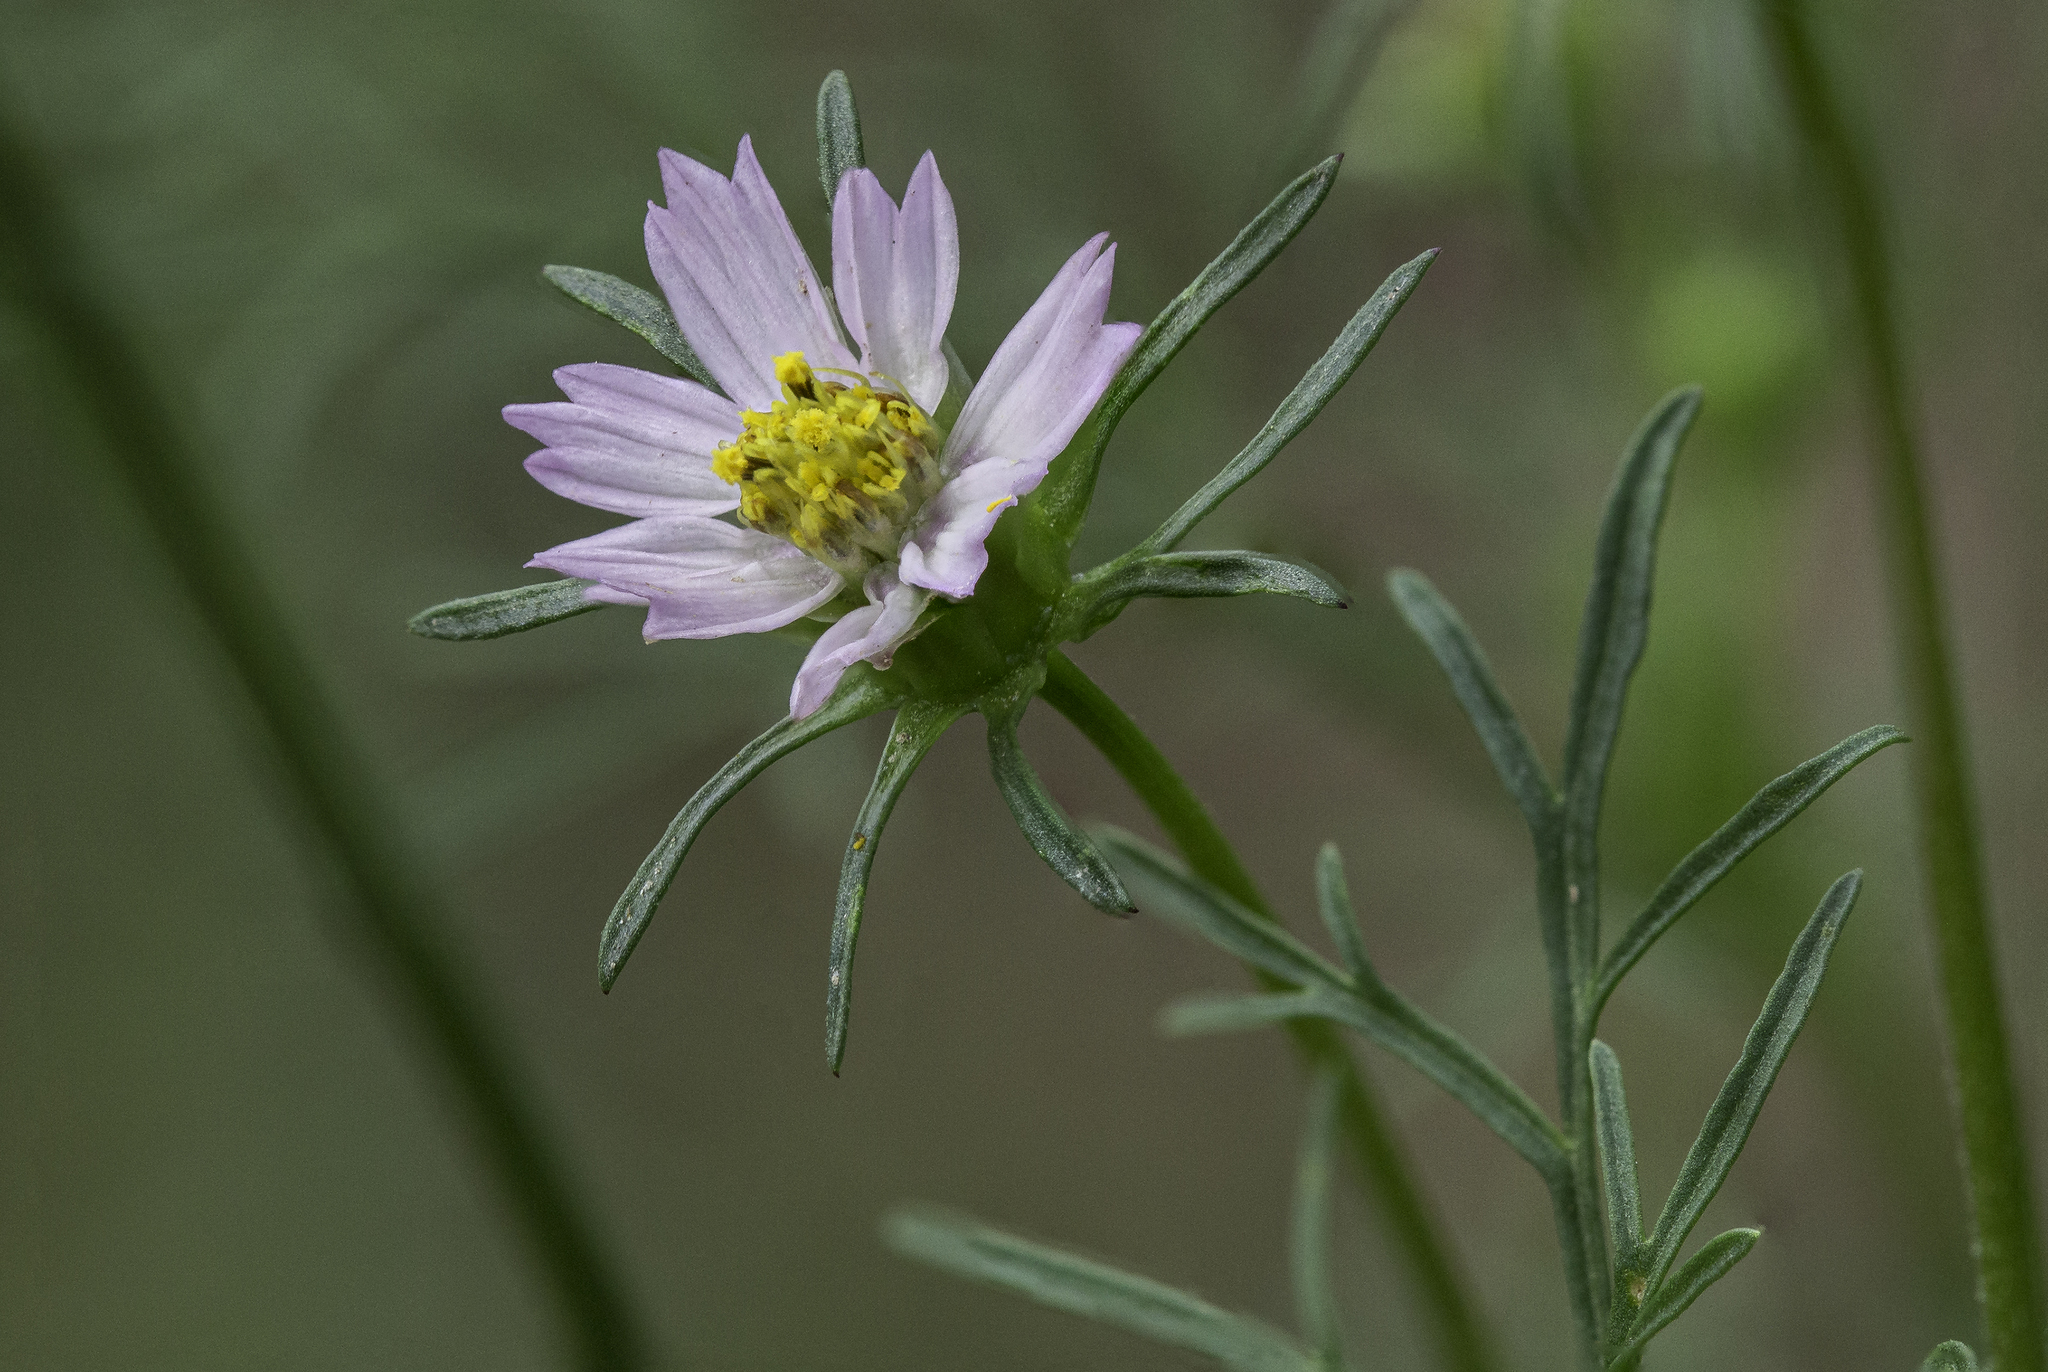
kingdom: Plantae
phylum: Tracheophyta
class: Magnoliopsida
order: Asterales
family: Asteraceae
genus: Cosmos
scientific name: Cosmos parviflorus
